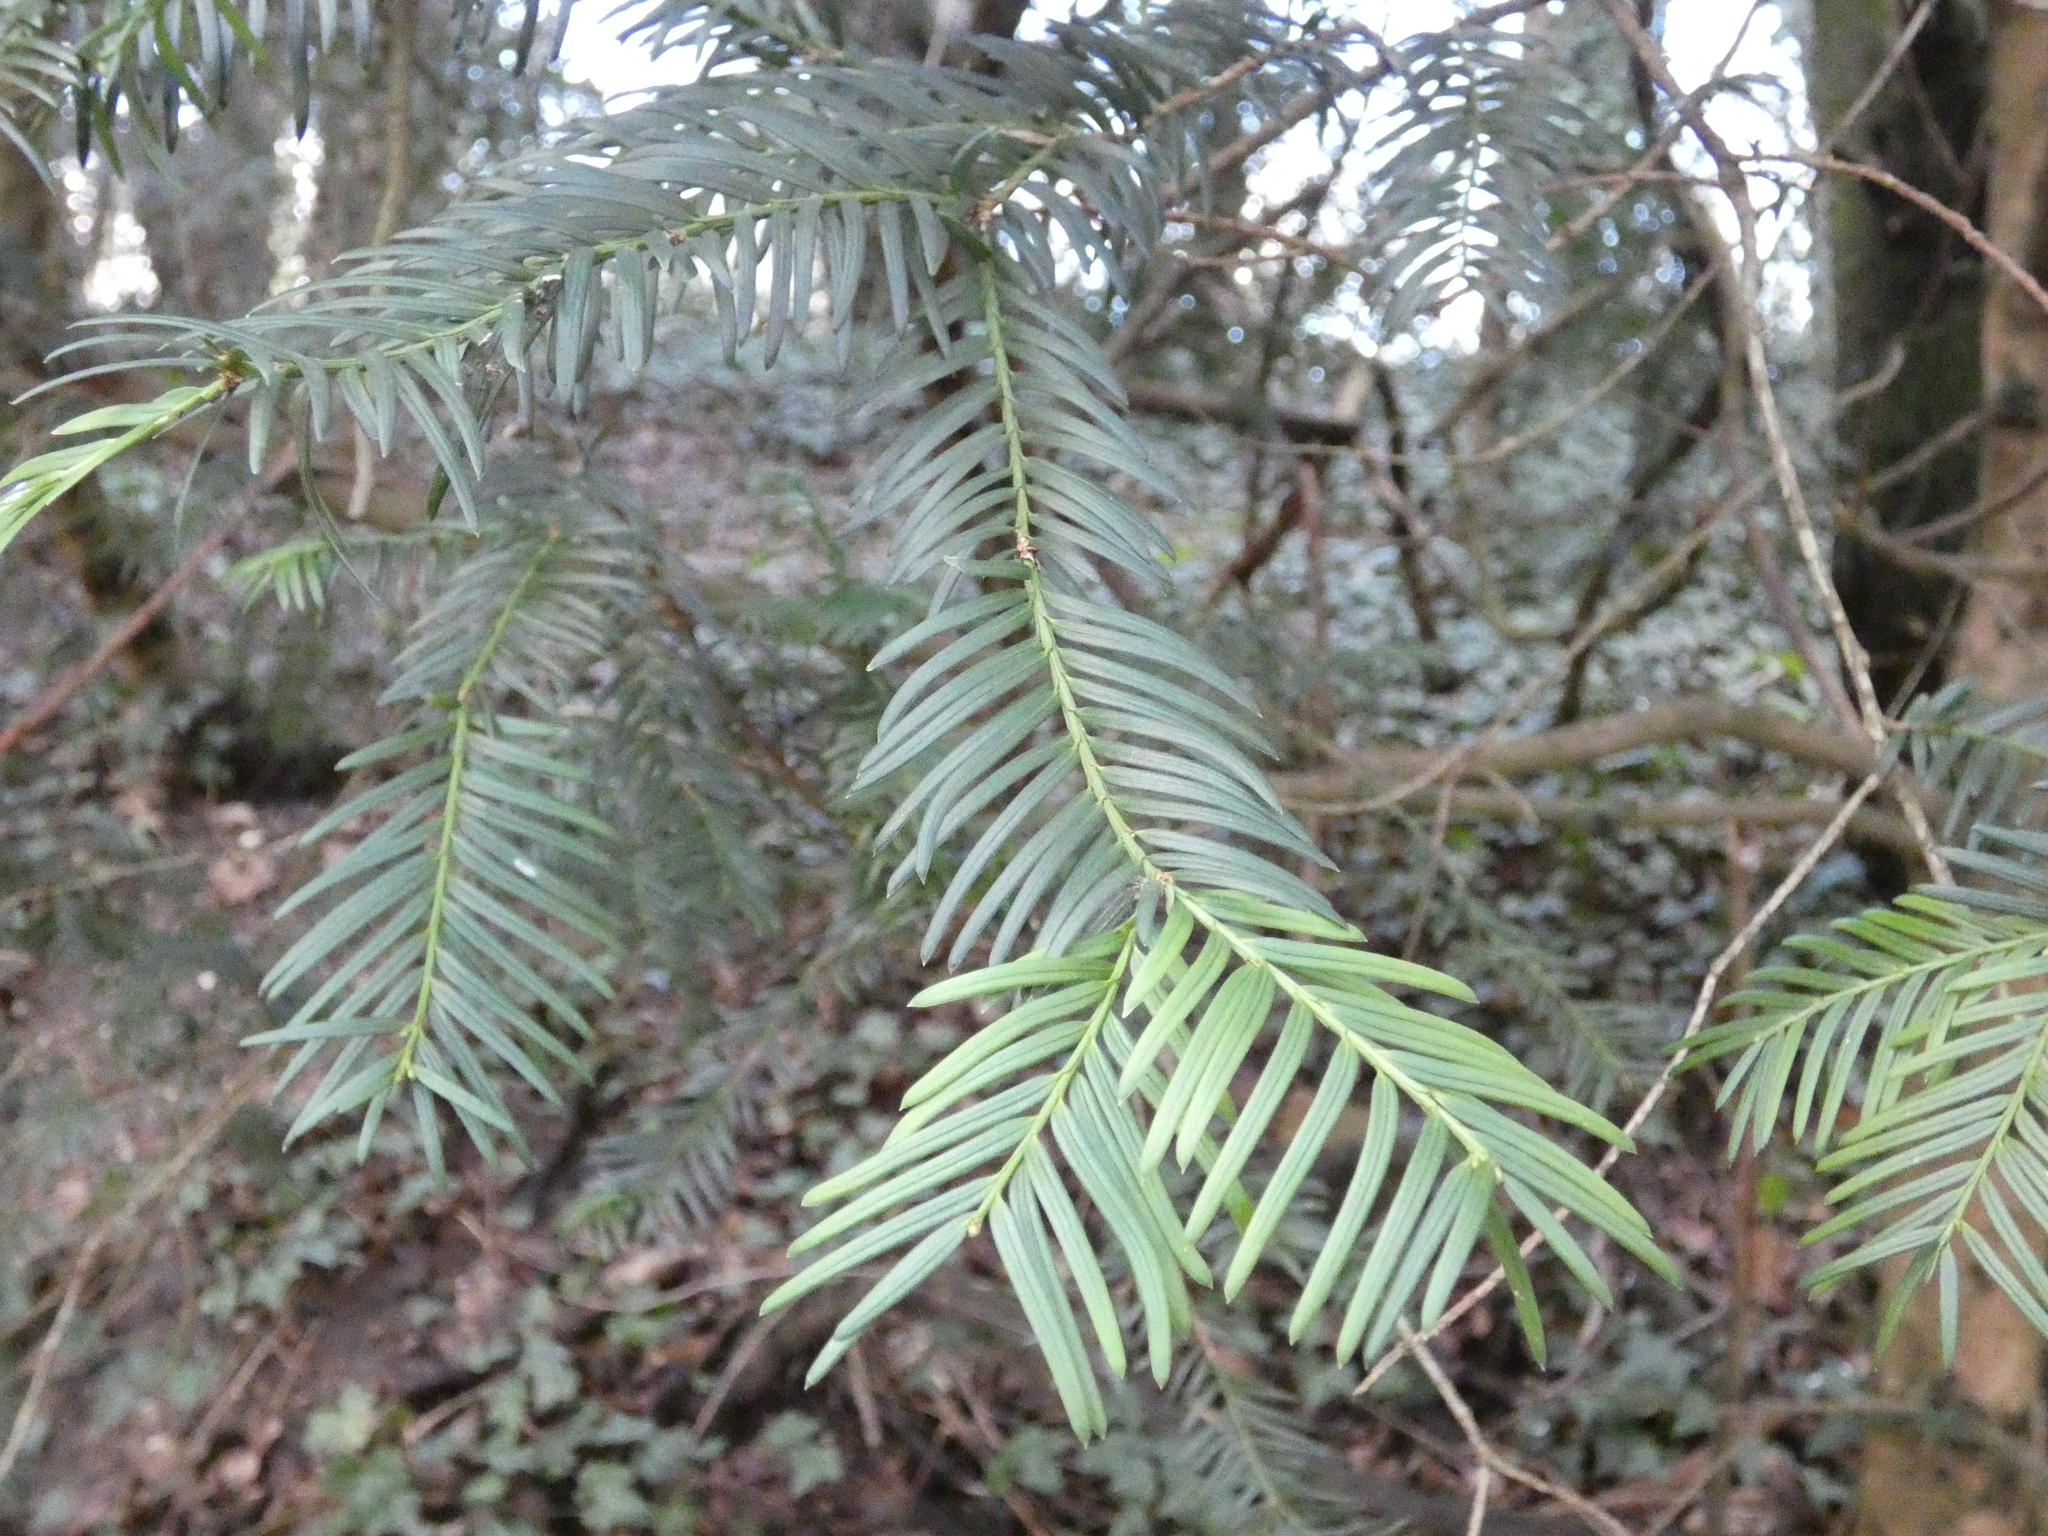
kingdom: Plantae
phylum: Tracheophyta
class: Pinopsida
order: Pinales
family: Taxaceae
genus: Taxus
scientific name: Taxus baccata
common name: Yew
